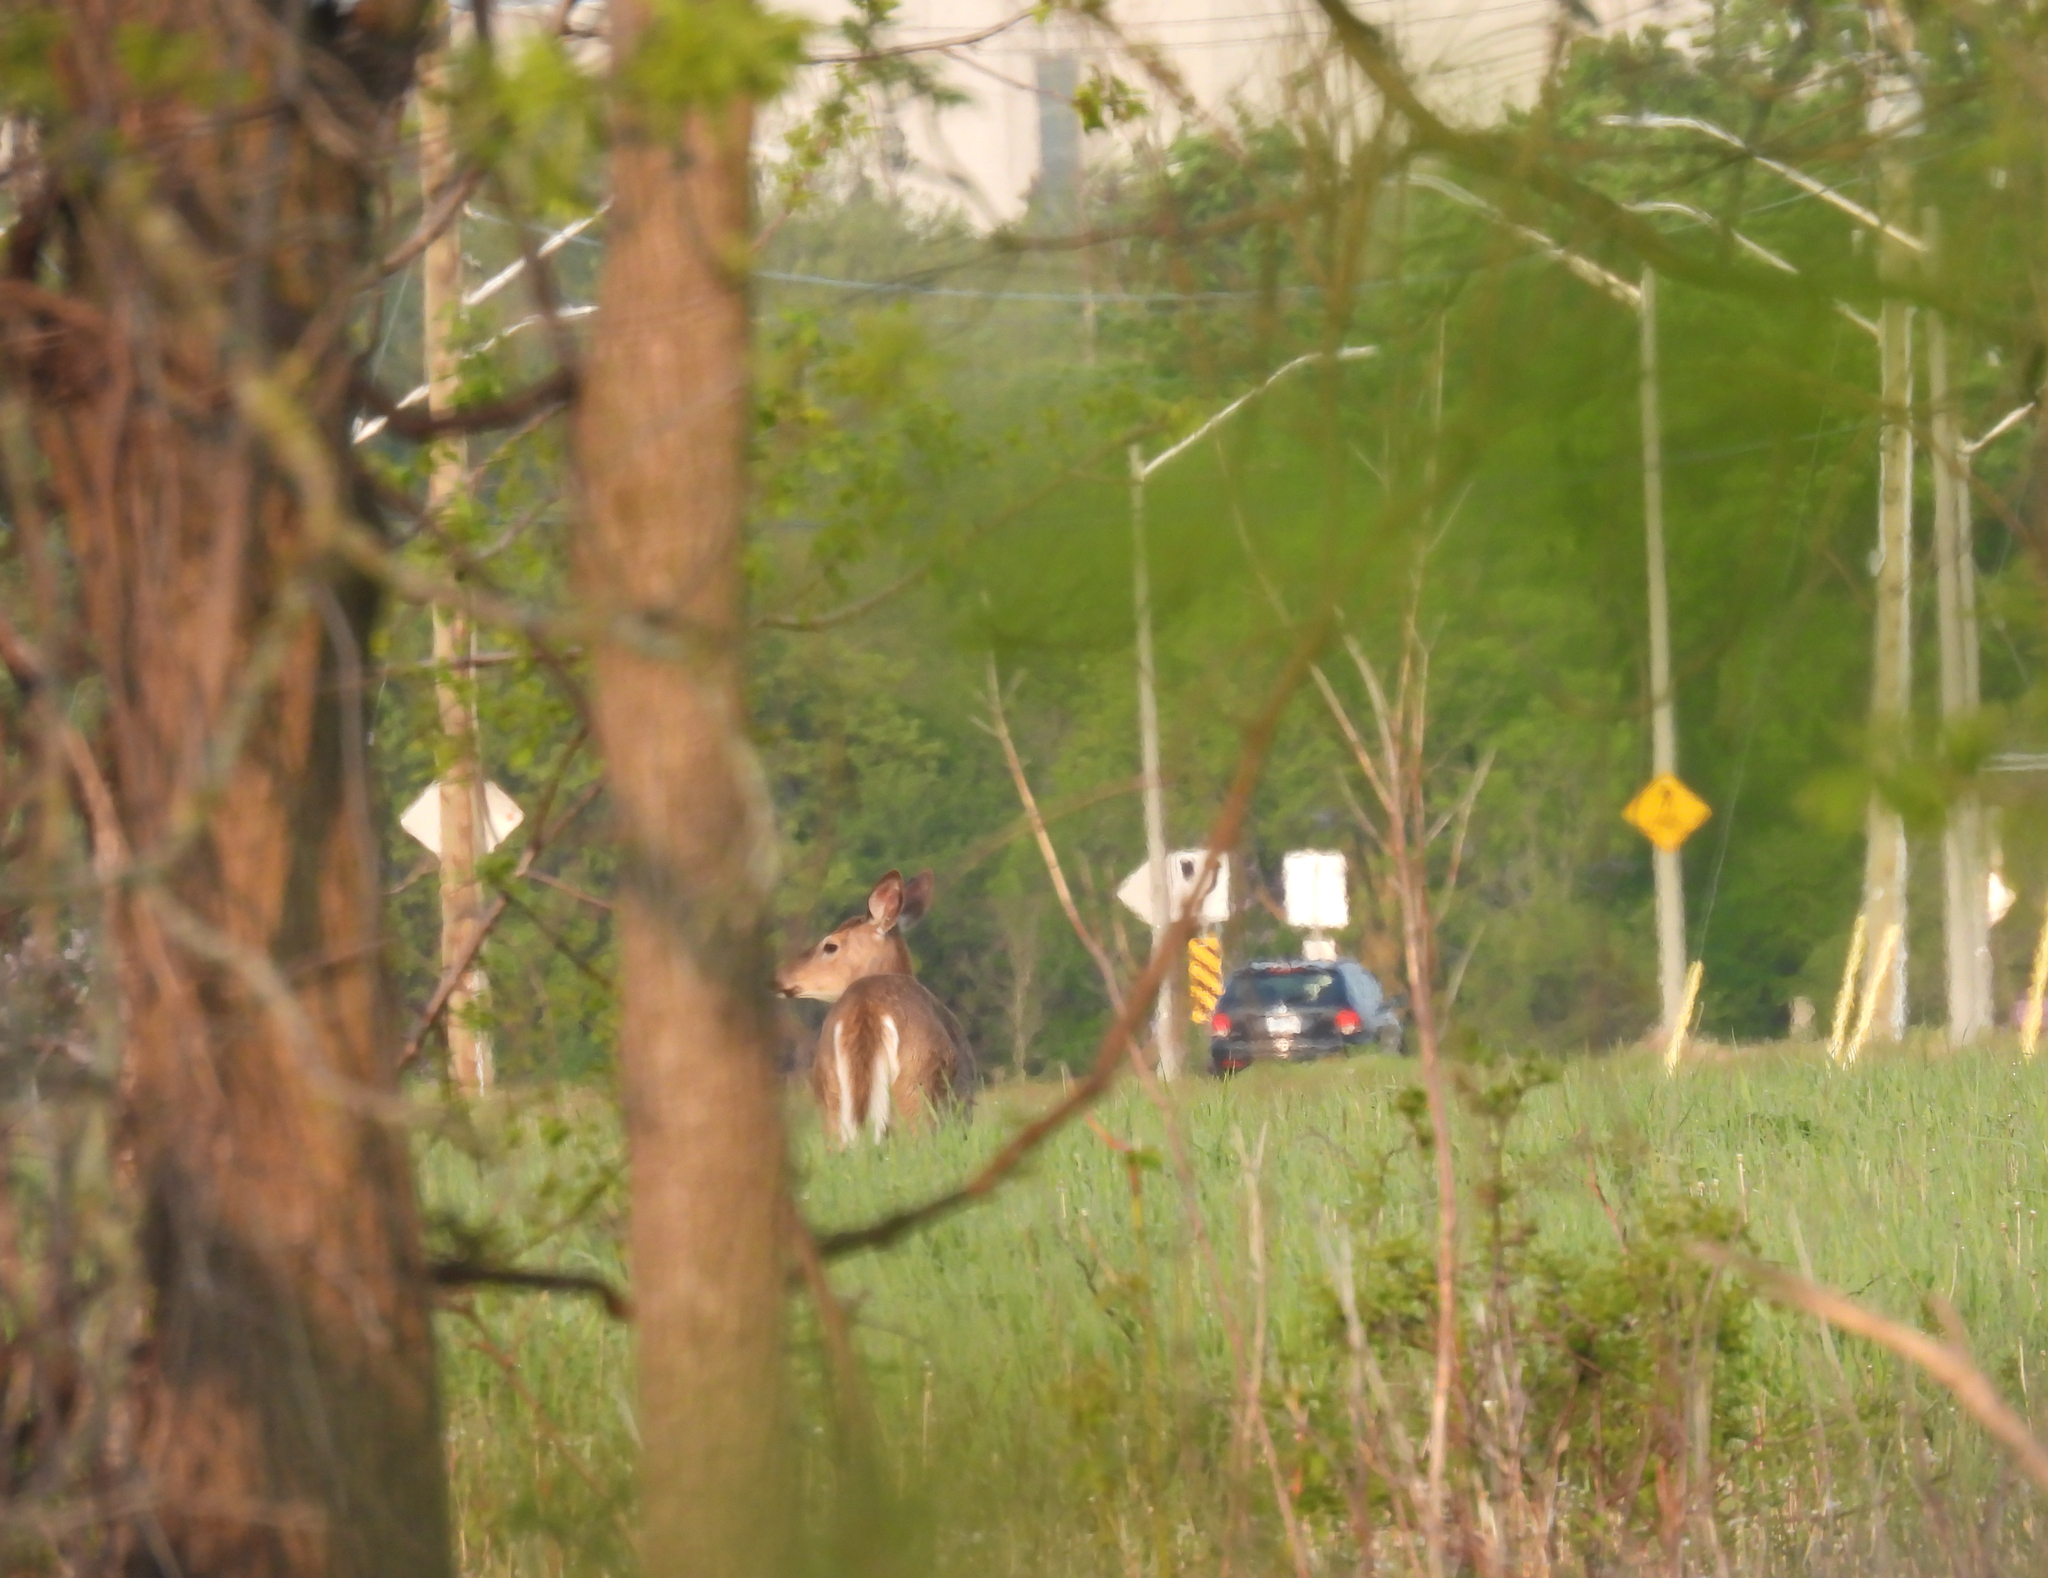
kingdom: Animalia
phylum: Chordata
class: Mammalia
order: Artiodactyla
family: Cervidae
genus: Odocoileus
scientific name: Odocoileus virginianus
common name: White-tailed deer
